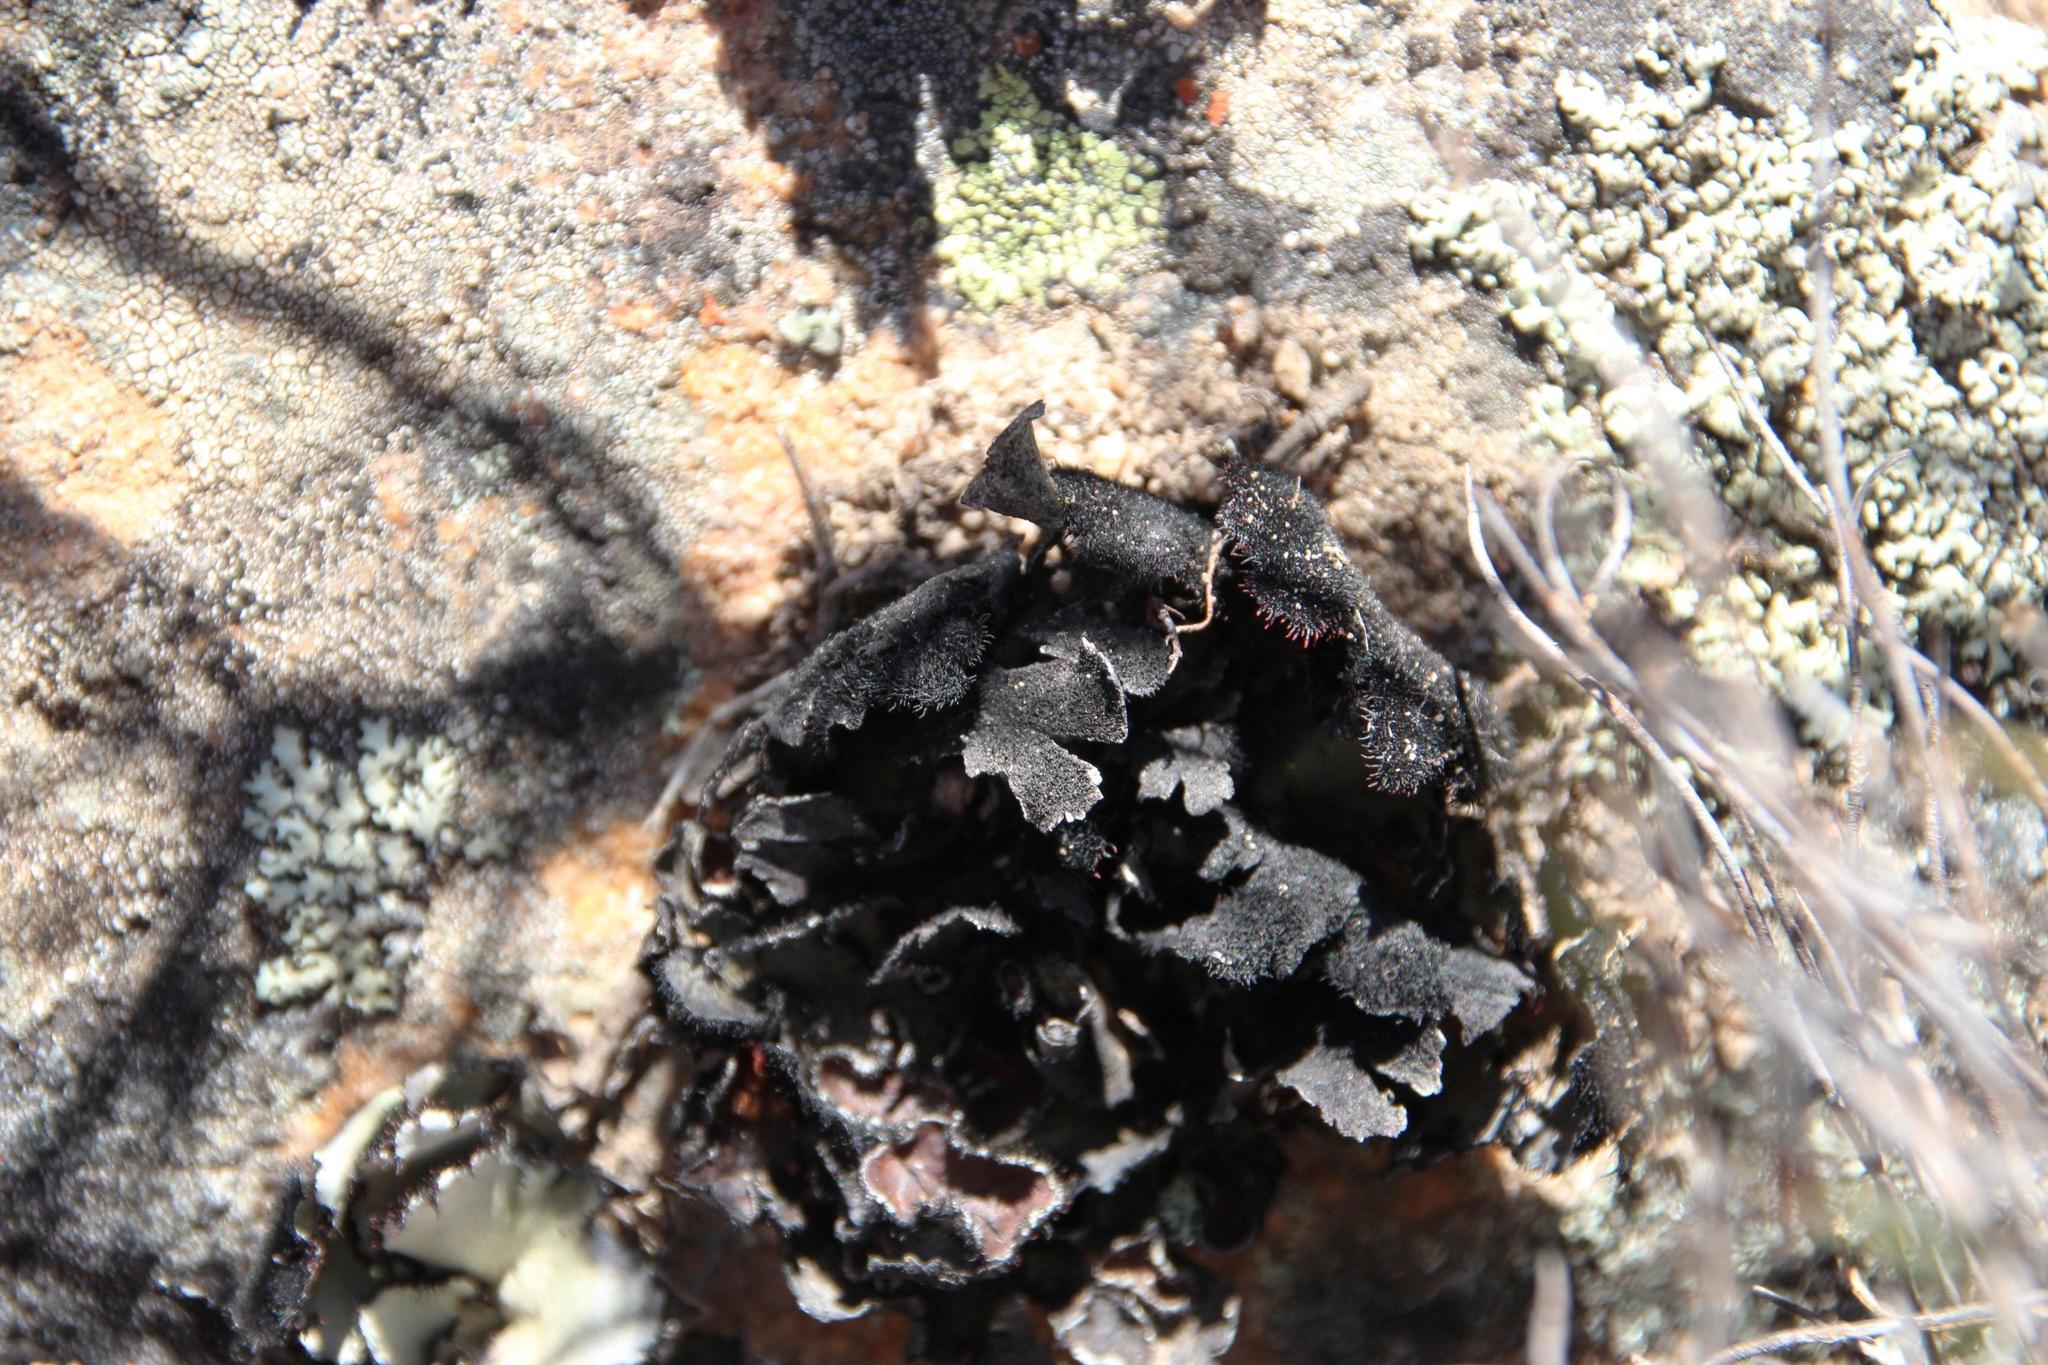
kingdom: Fungi
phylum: Ascomycota
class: Lecanoromycetes
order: Lecanorales
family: Parmeliaceae
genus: Xanthoparmelia
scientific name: Xanthoparmelia hottentotta
